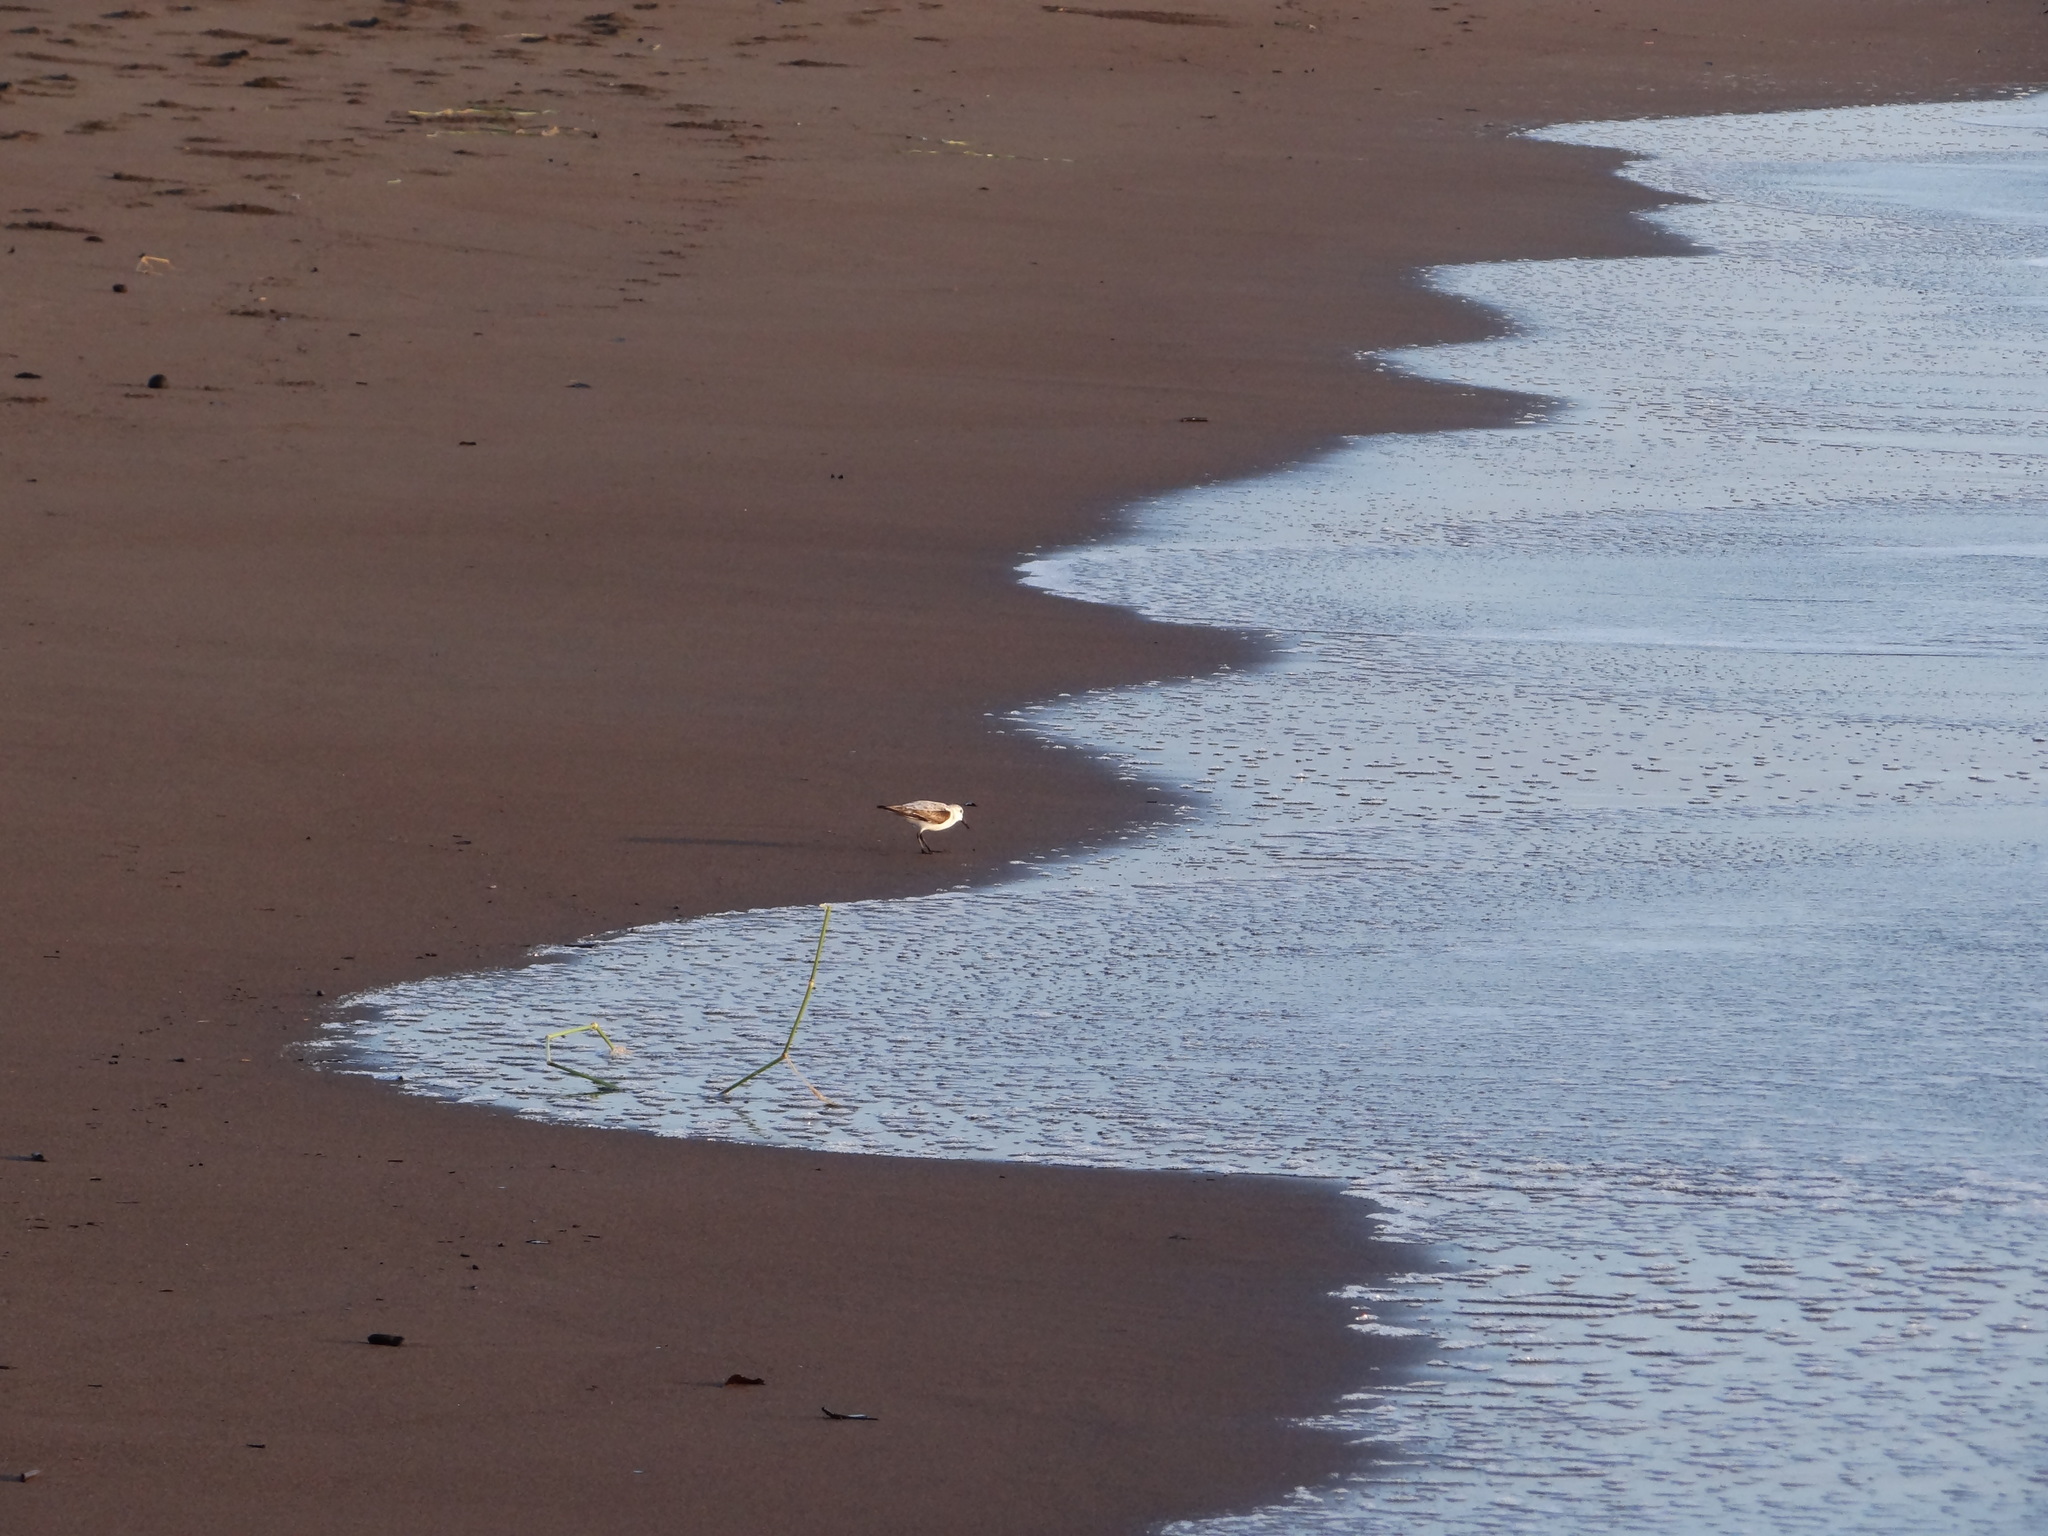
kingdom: Animalia
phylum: Chordata
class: Aves
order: Charadriiformes
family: Scolopacidae
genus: Calidris
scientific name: Calidris alba
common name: Sanderling
